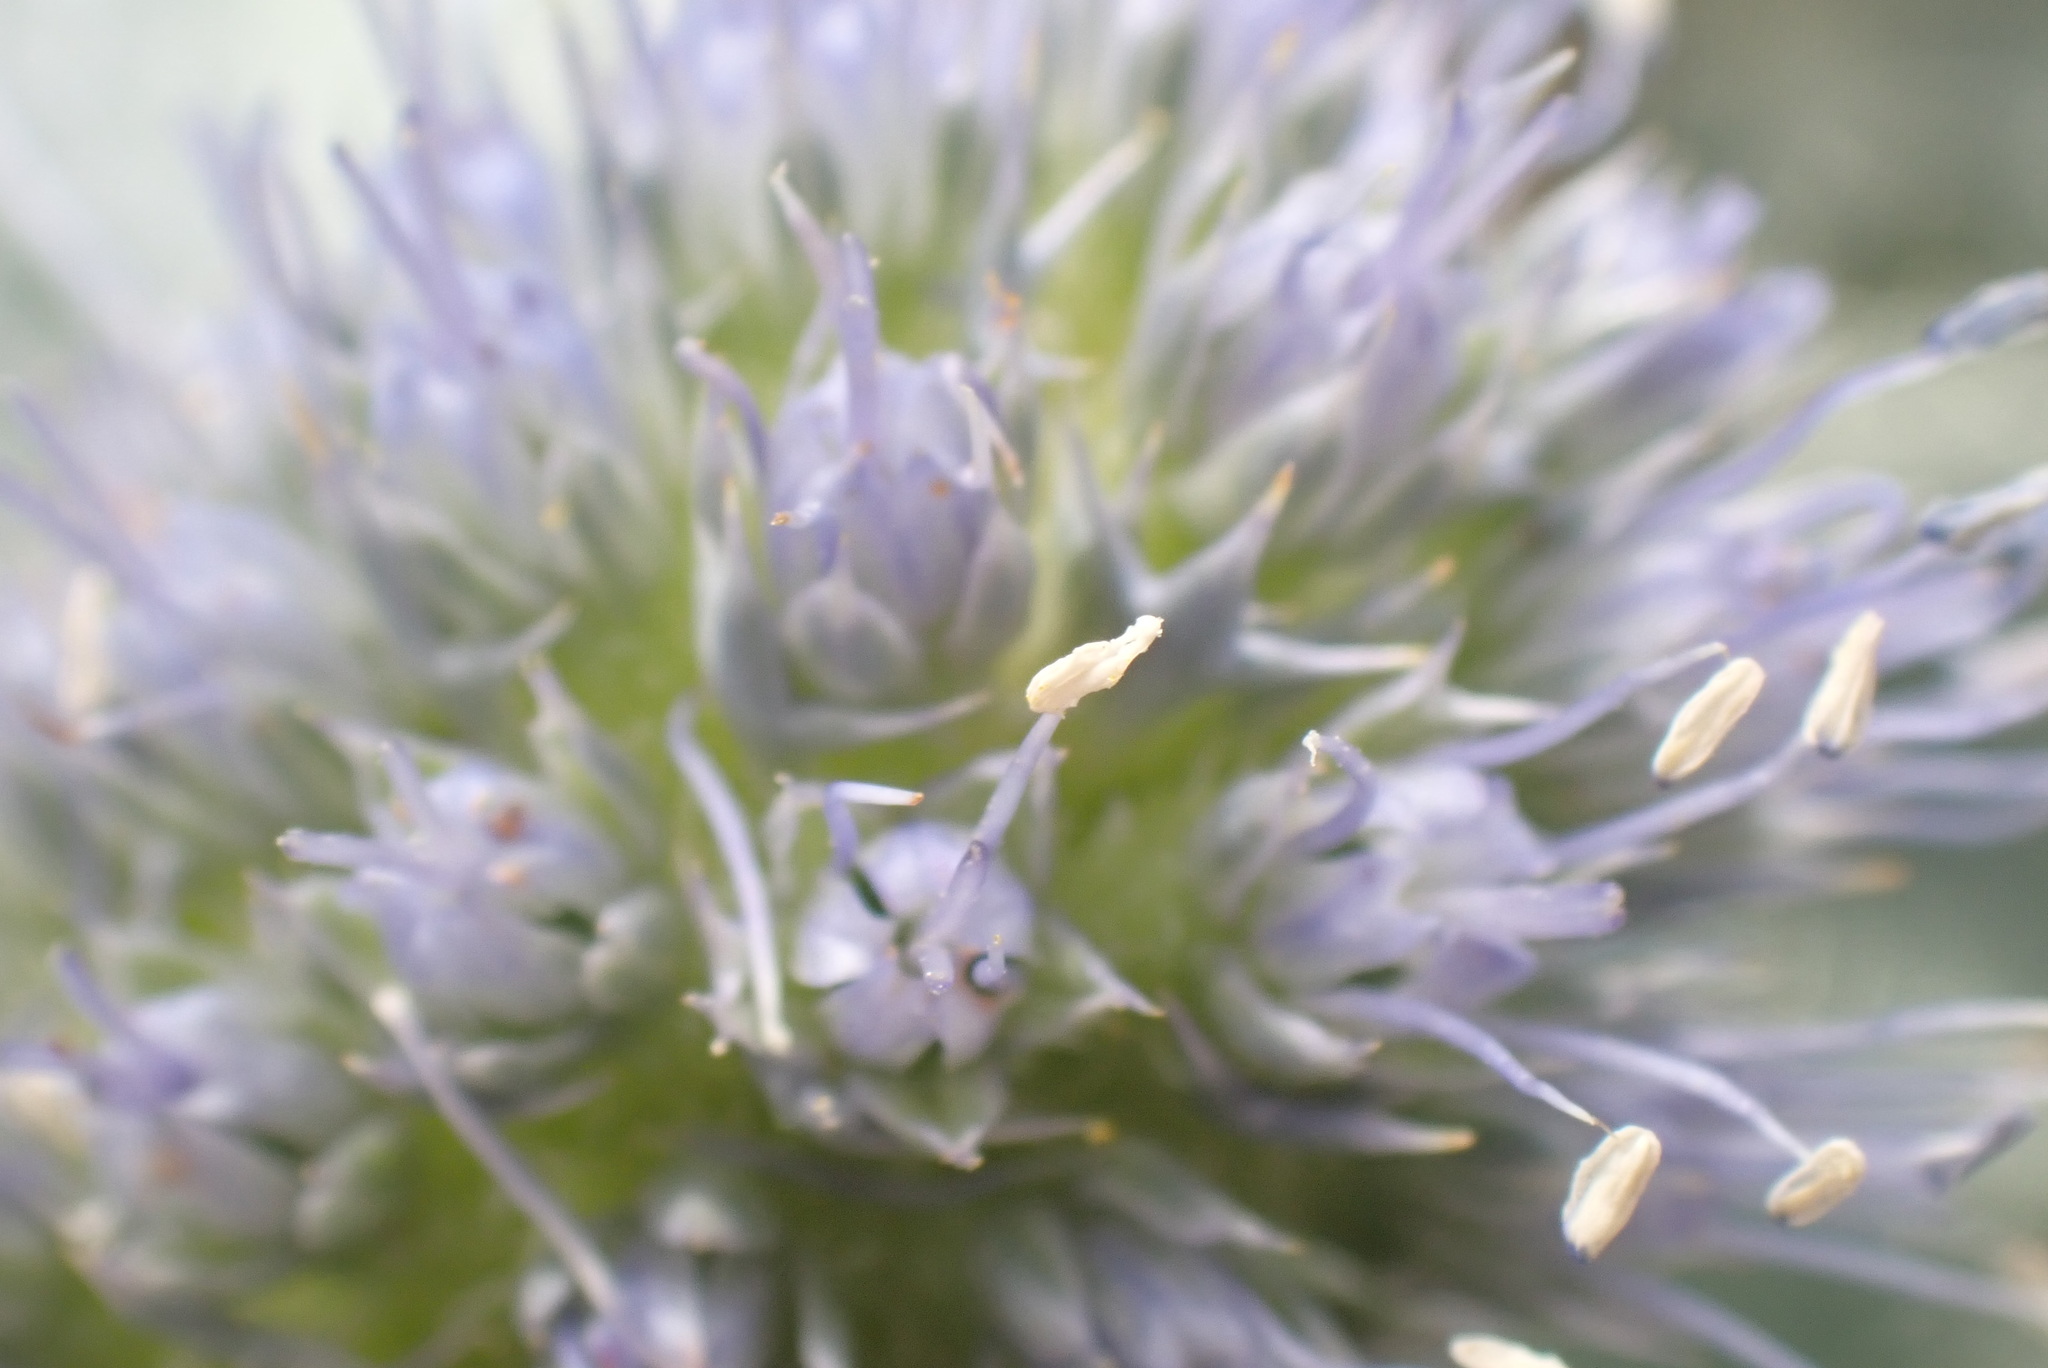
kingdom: Plantae
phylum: Tracheophyta
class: Magnoliopsida
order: Apiales
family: Apiaceae
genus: Eryngium
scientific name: Eryngium maritimum
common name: Sea-holly
